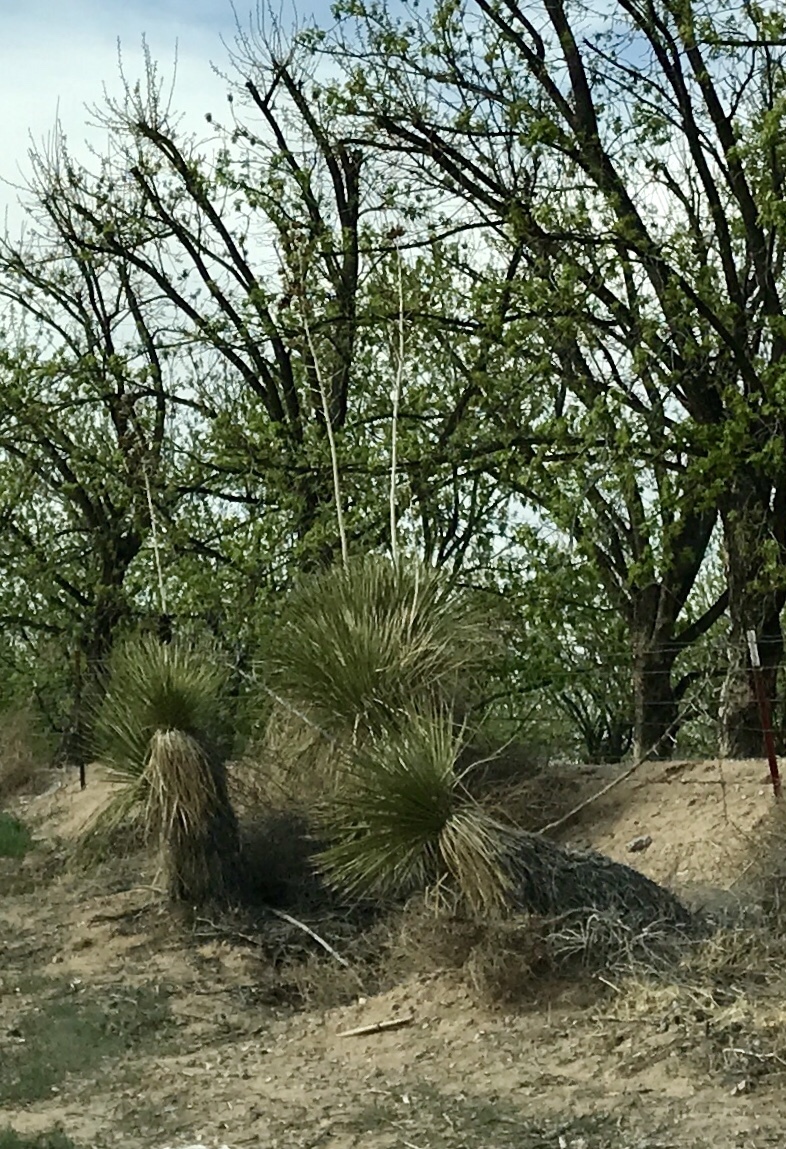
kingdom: Plantae
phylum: Tracheophyta
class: Liliopsida
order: Asparagales
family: Asparagaceae
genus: Yucca
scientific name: Yucca elata
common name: Palmella
